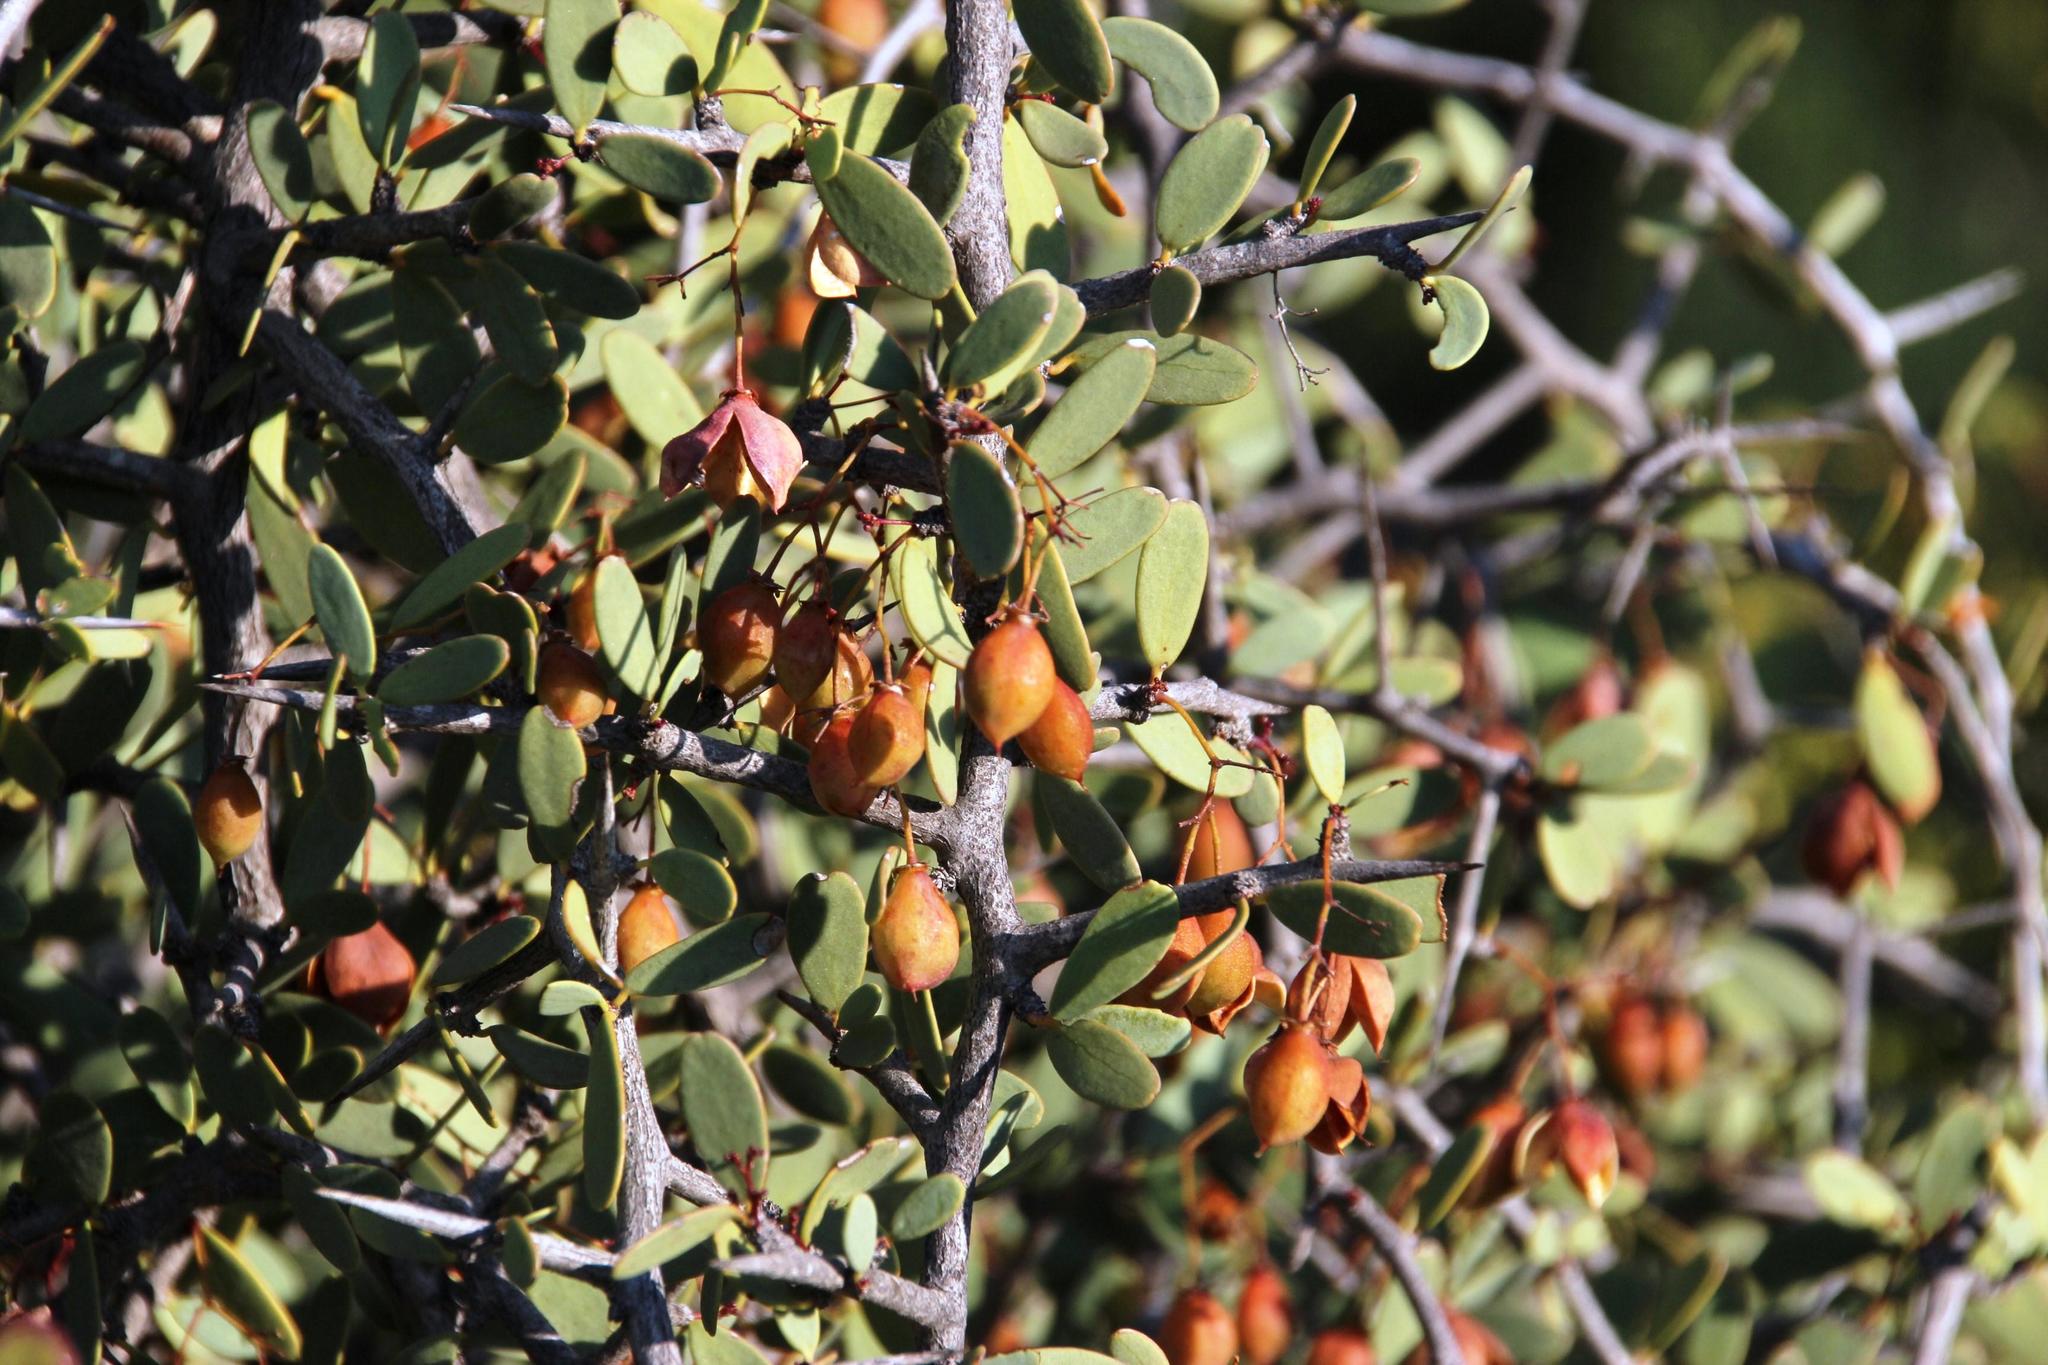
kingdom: Plantae
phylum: Tracheophyta
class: Magnoliopsida
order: Celastrales
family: Celastraceae
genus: Gloveria
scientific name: Gloveria integrifolia
